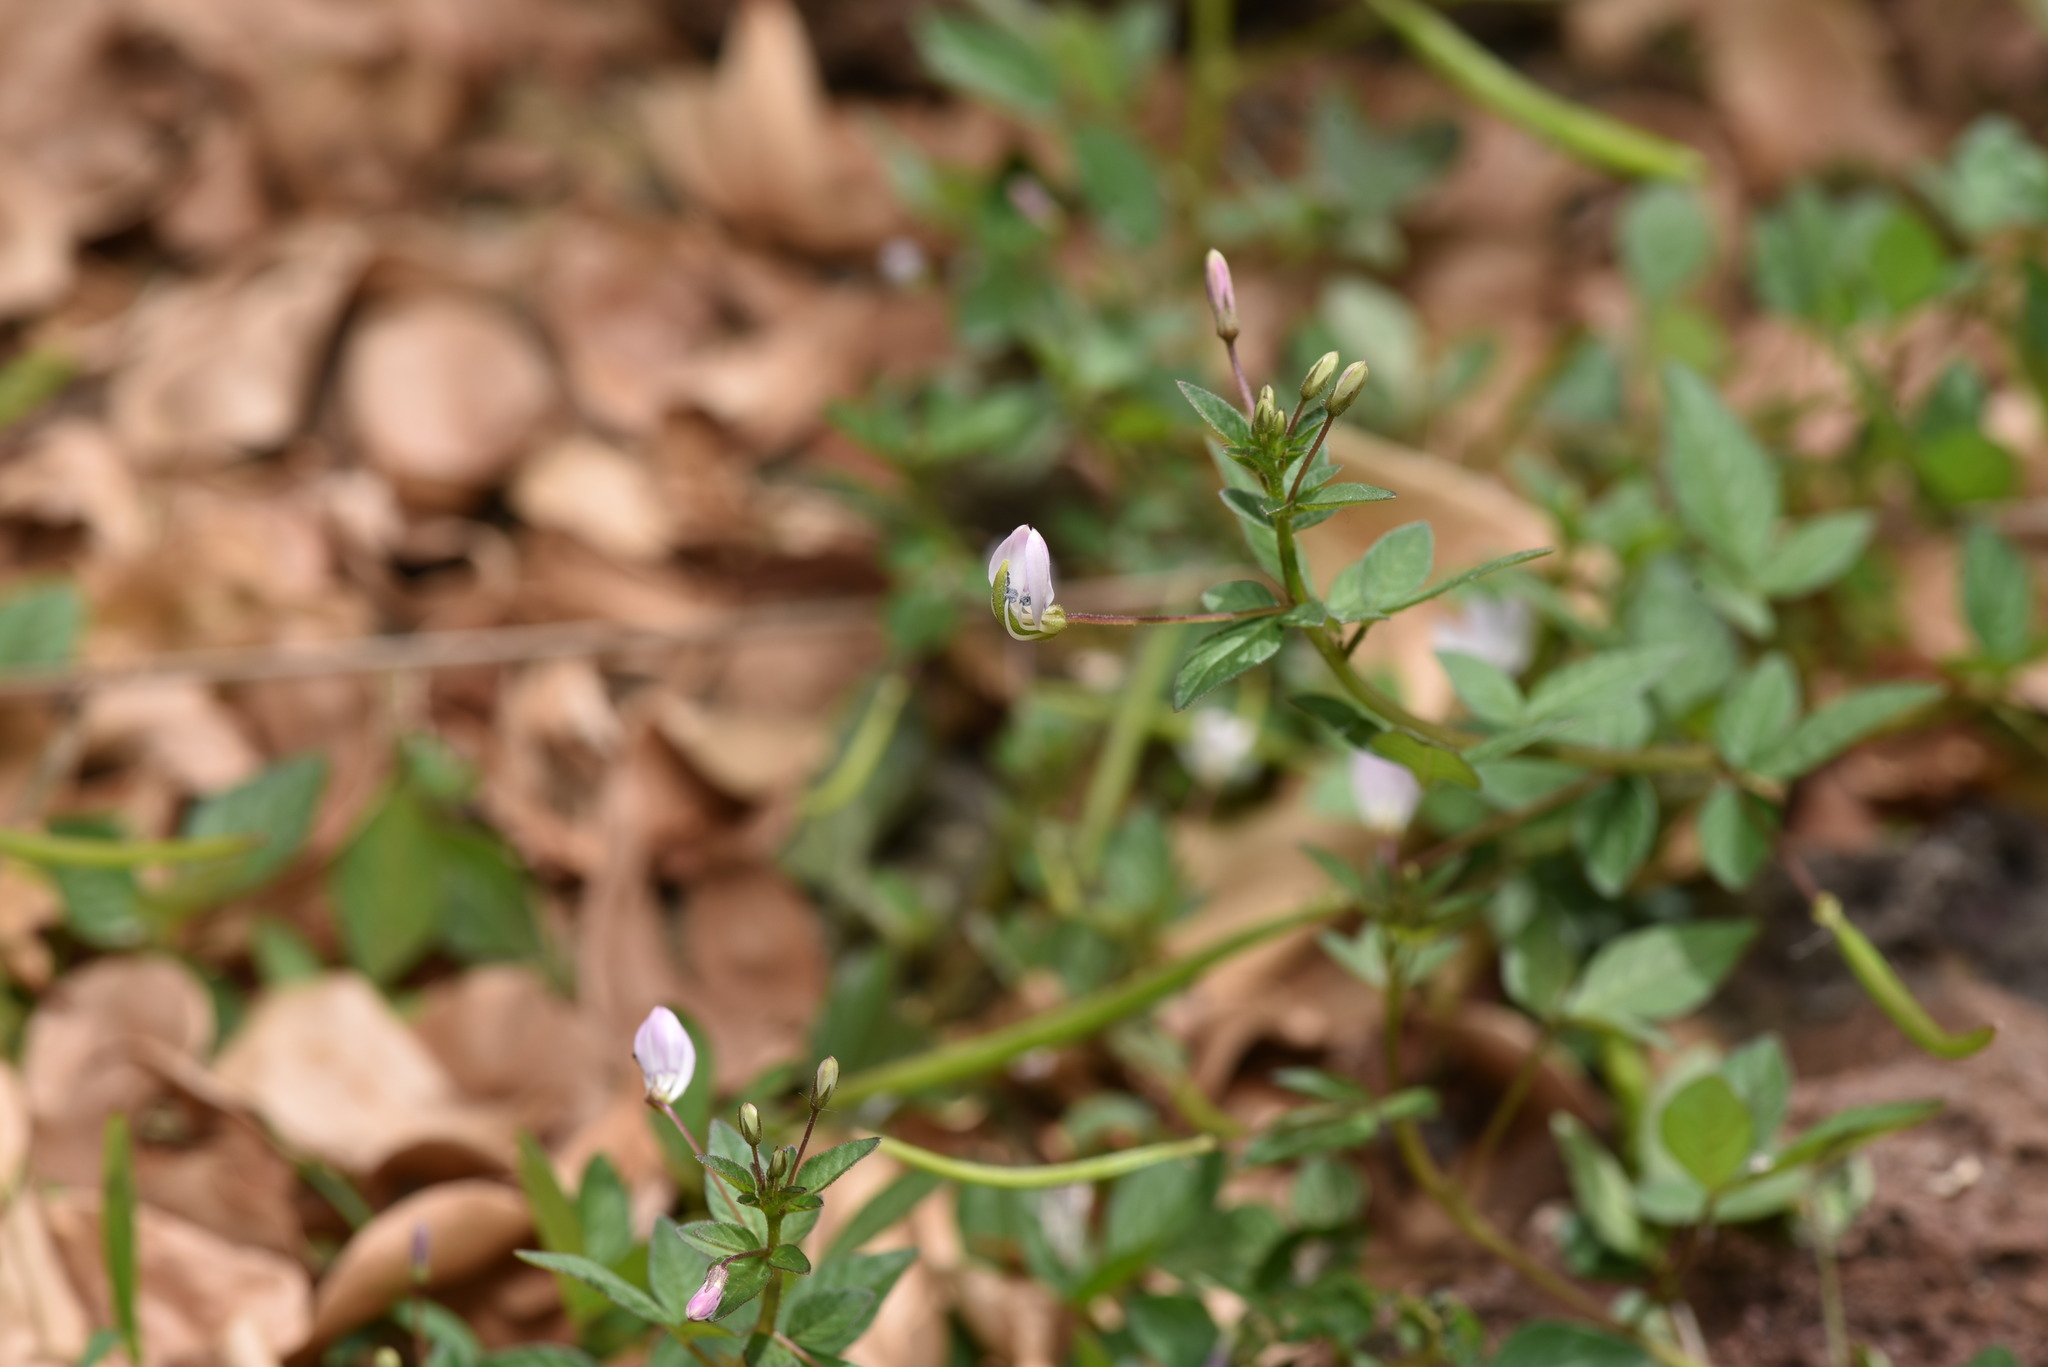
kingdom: Plantae
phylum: Tracheophyta
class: Magnoliopsida
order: Brassicales
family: Cleomaceae
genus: Sieruela
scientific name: Sieruela rutidosperma
